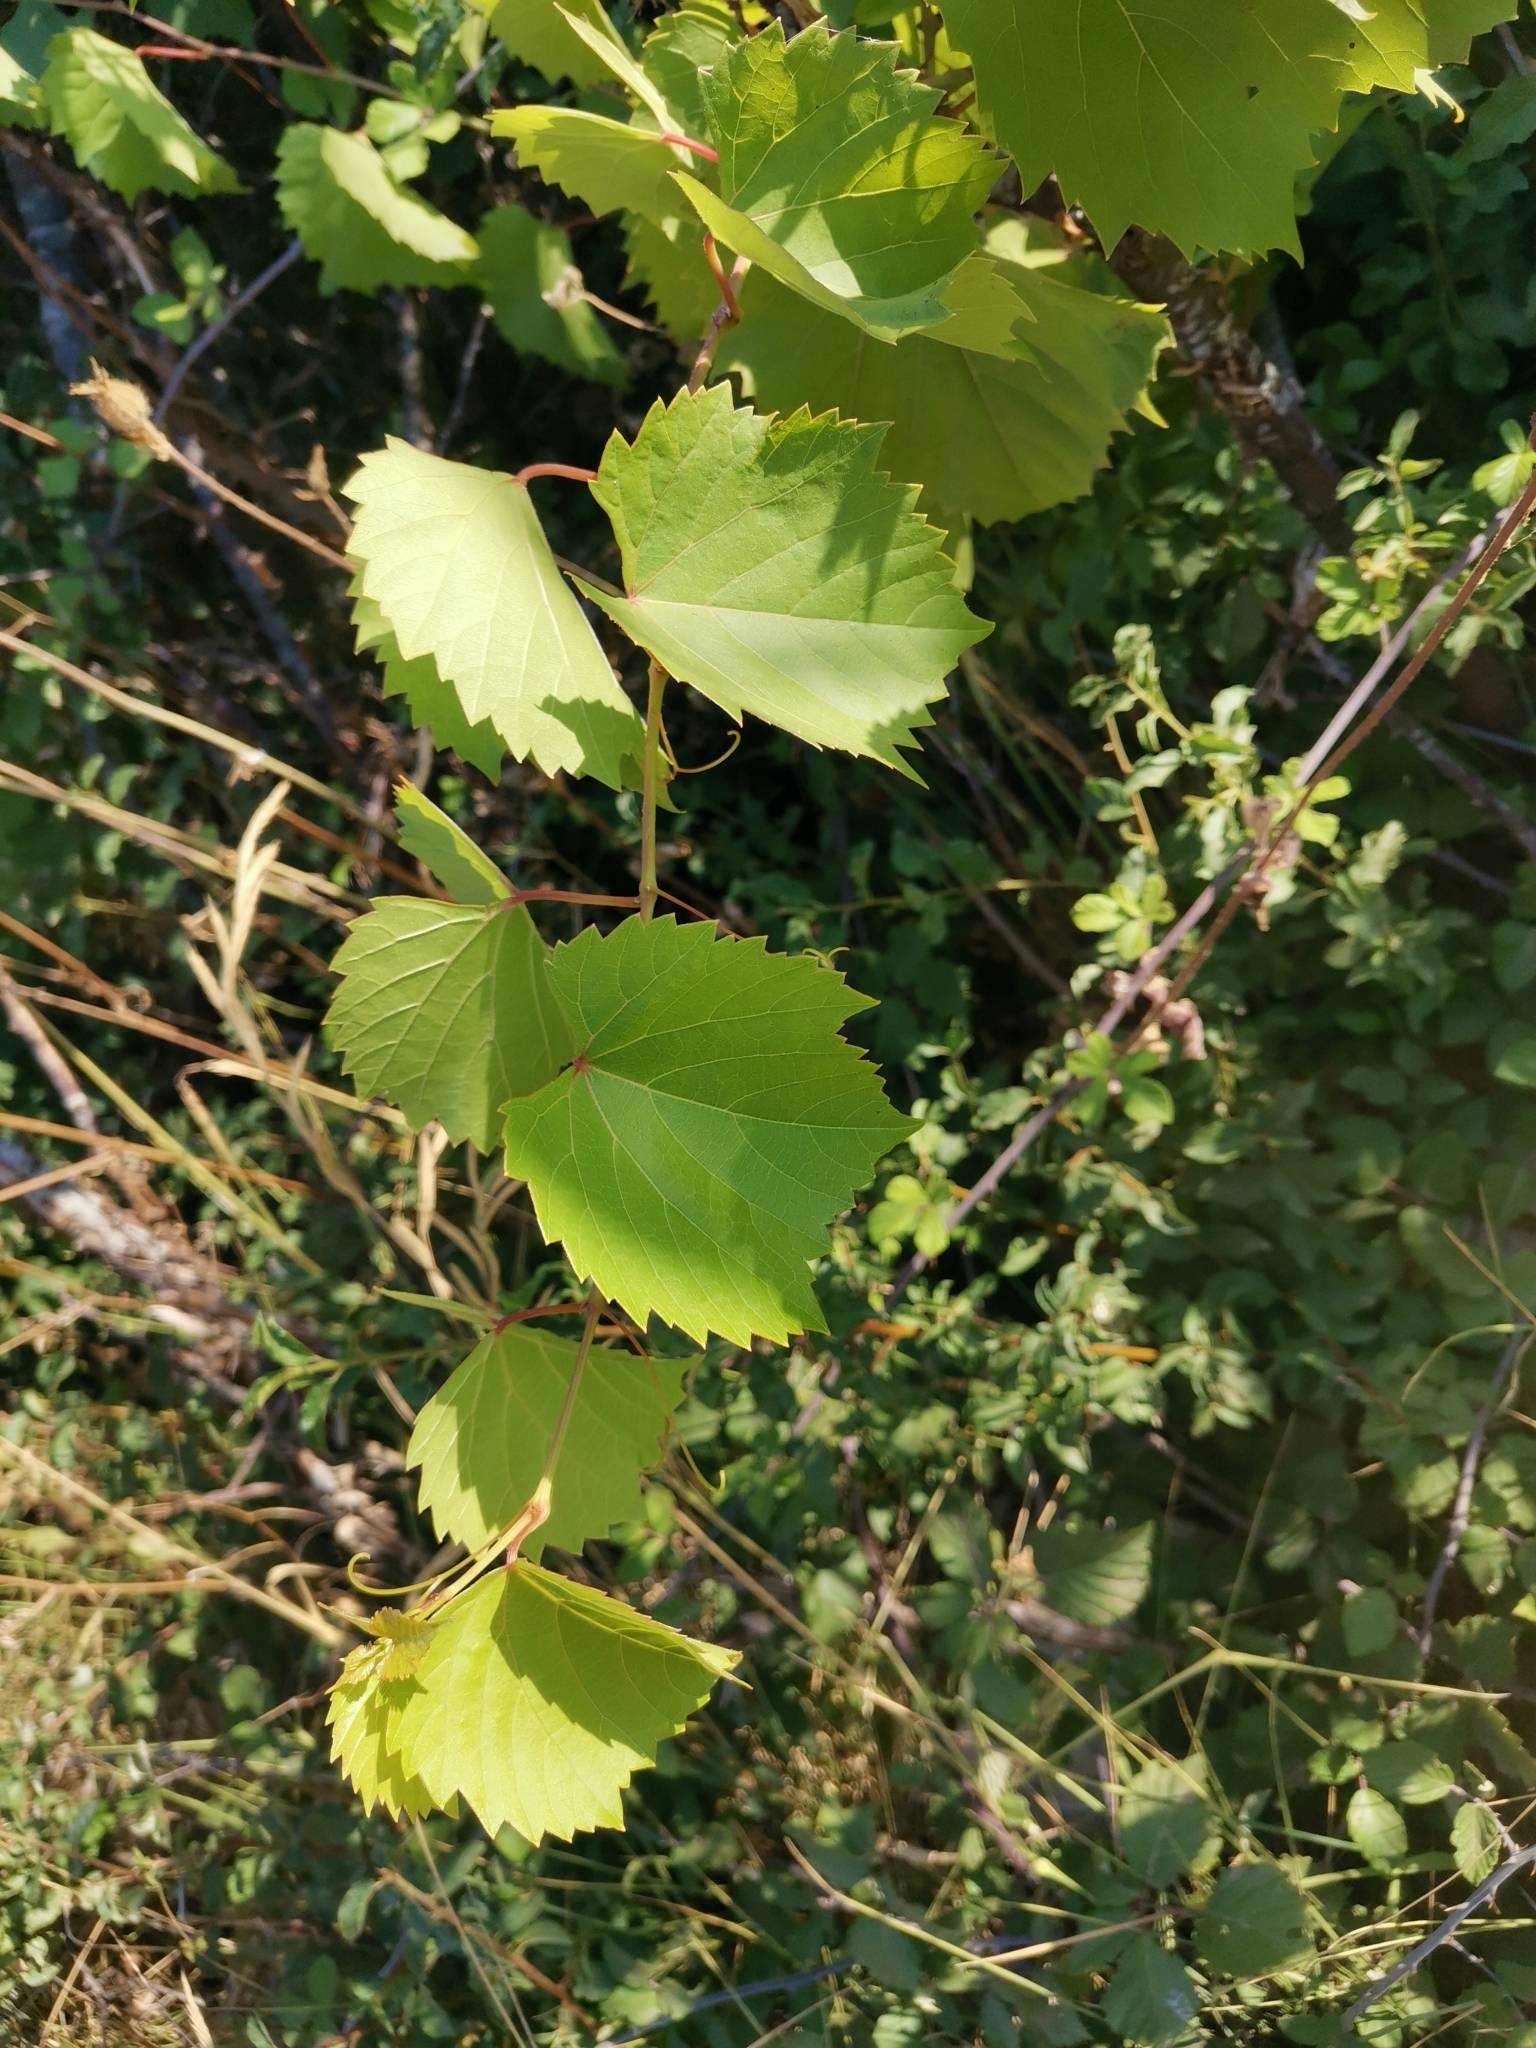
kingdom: Plantae
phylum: Tracheophyta
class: Magnoliopsida
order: Vitales
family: Vitaceae
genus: Vitis
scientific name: Vitis vinifera
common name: Grape-vine
